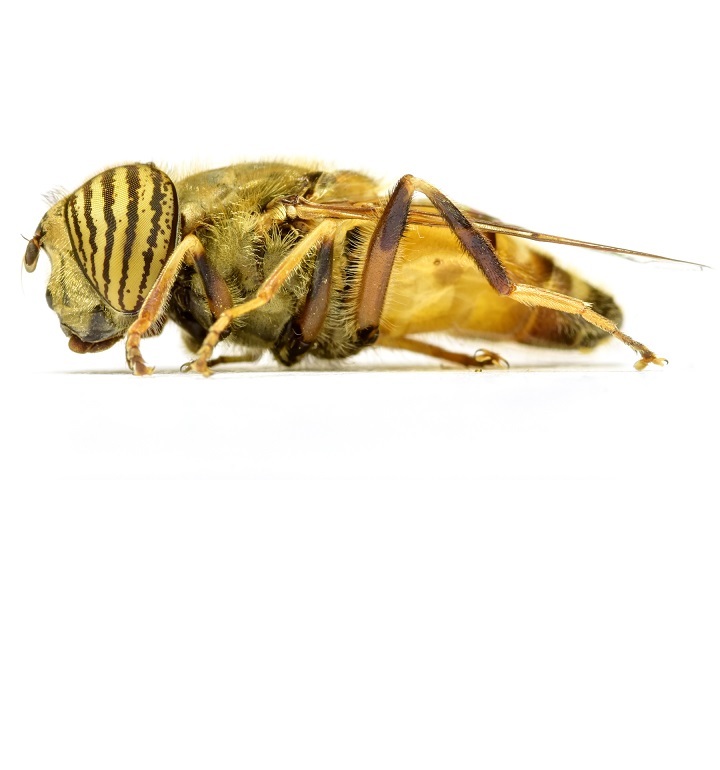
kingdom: Animalia
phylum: Arthropoda
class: Insecta
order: Diptera
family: Syrphidae
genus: Eristalinus
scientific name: Eristalinus taeniops
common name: Syrphid fly
